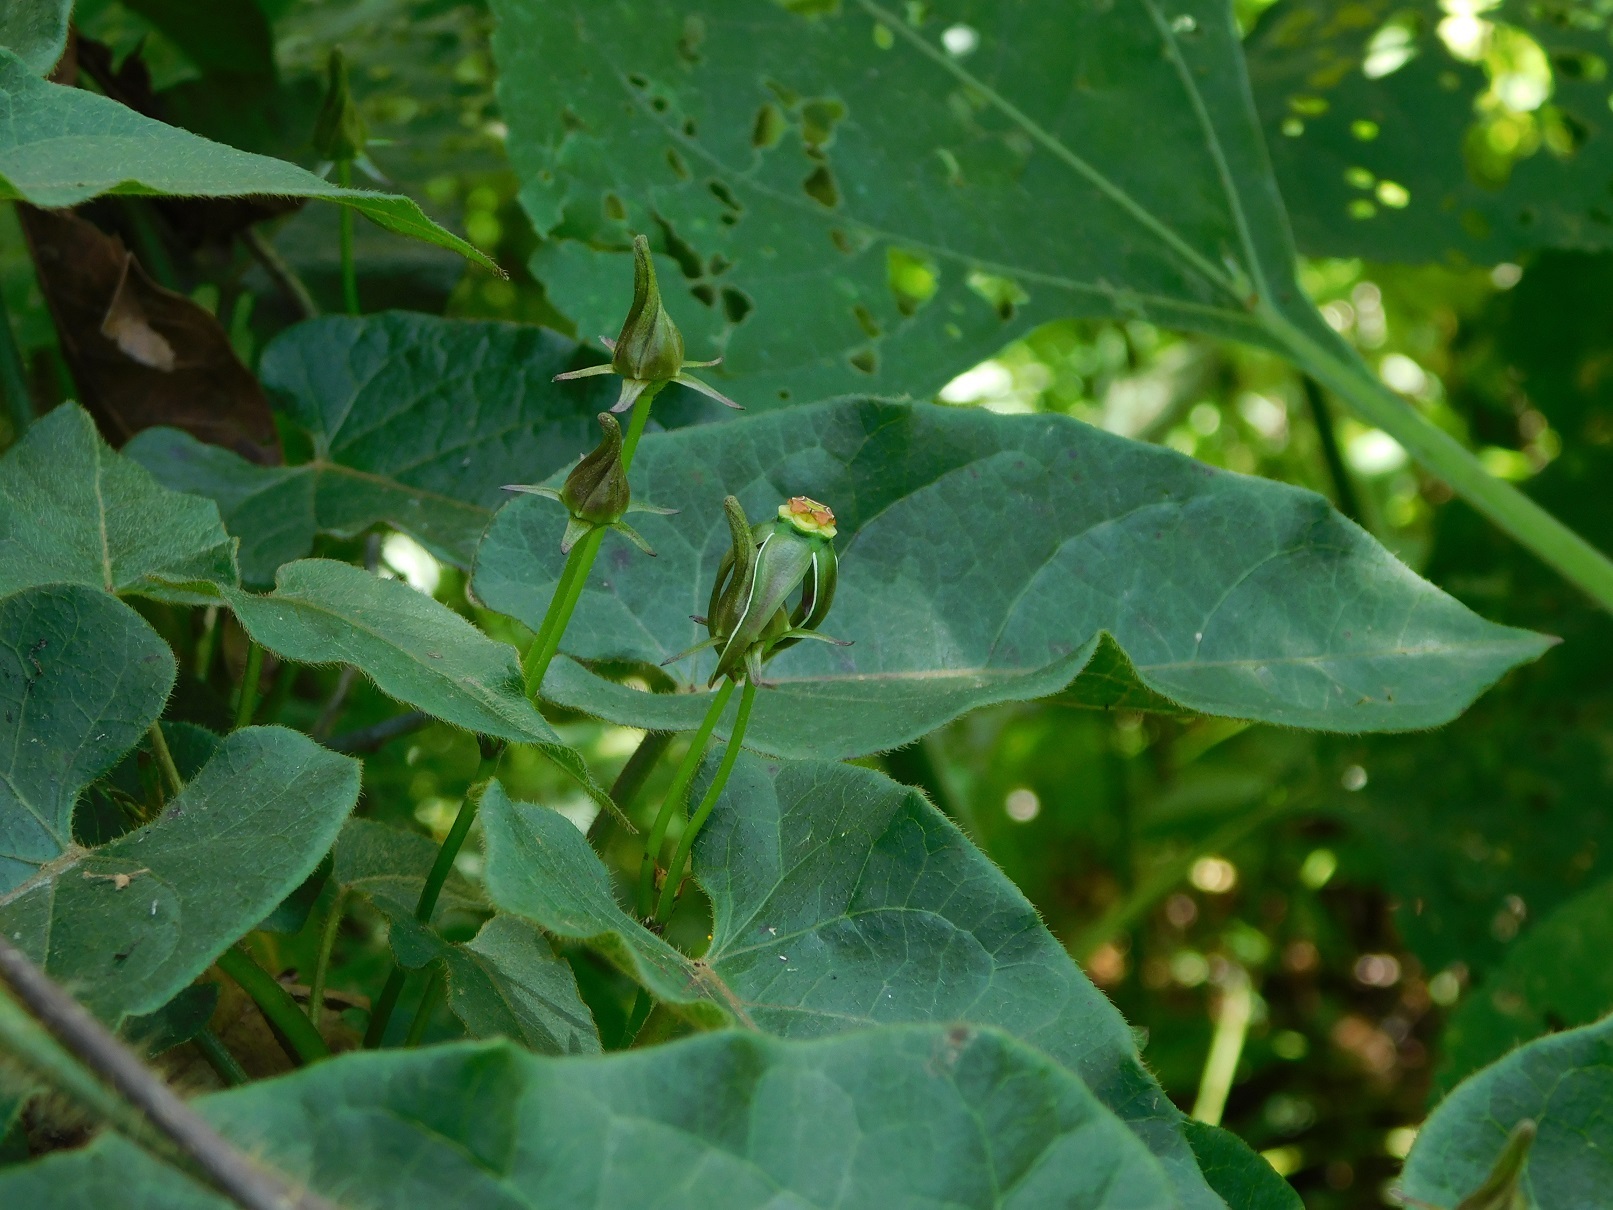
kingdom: Plantae
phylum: Tracheophyta
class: Magnoliopsida
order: Gentianales
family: Apocynaceae
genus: Gonolobus
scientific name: Gonolobus breedlovei
